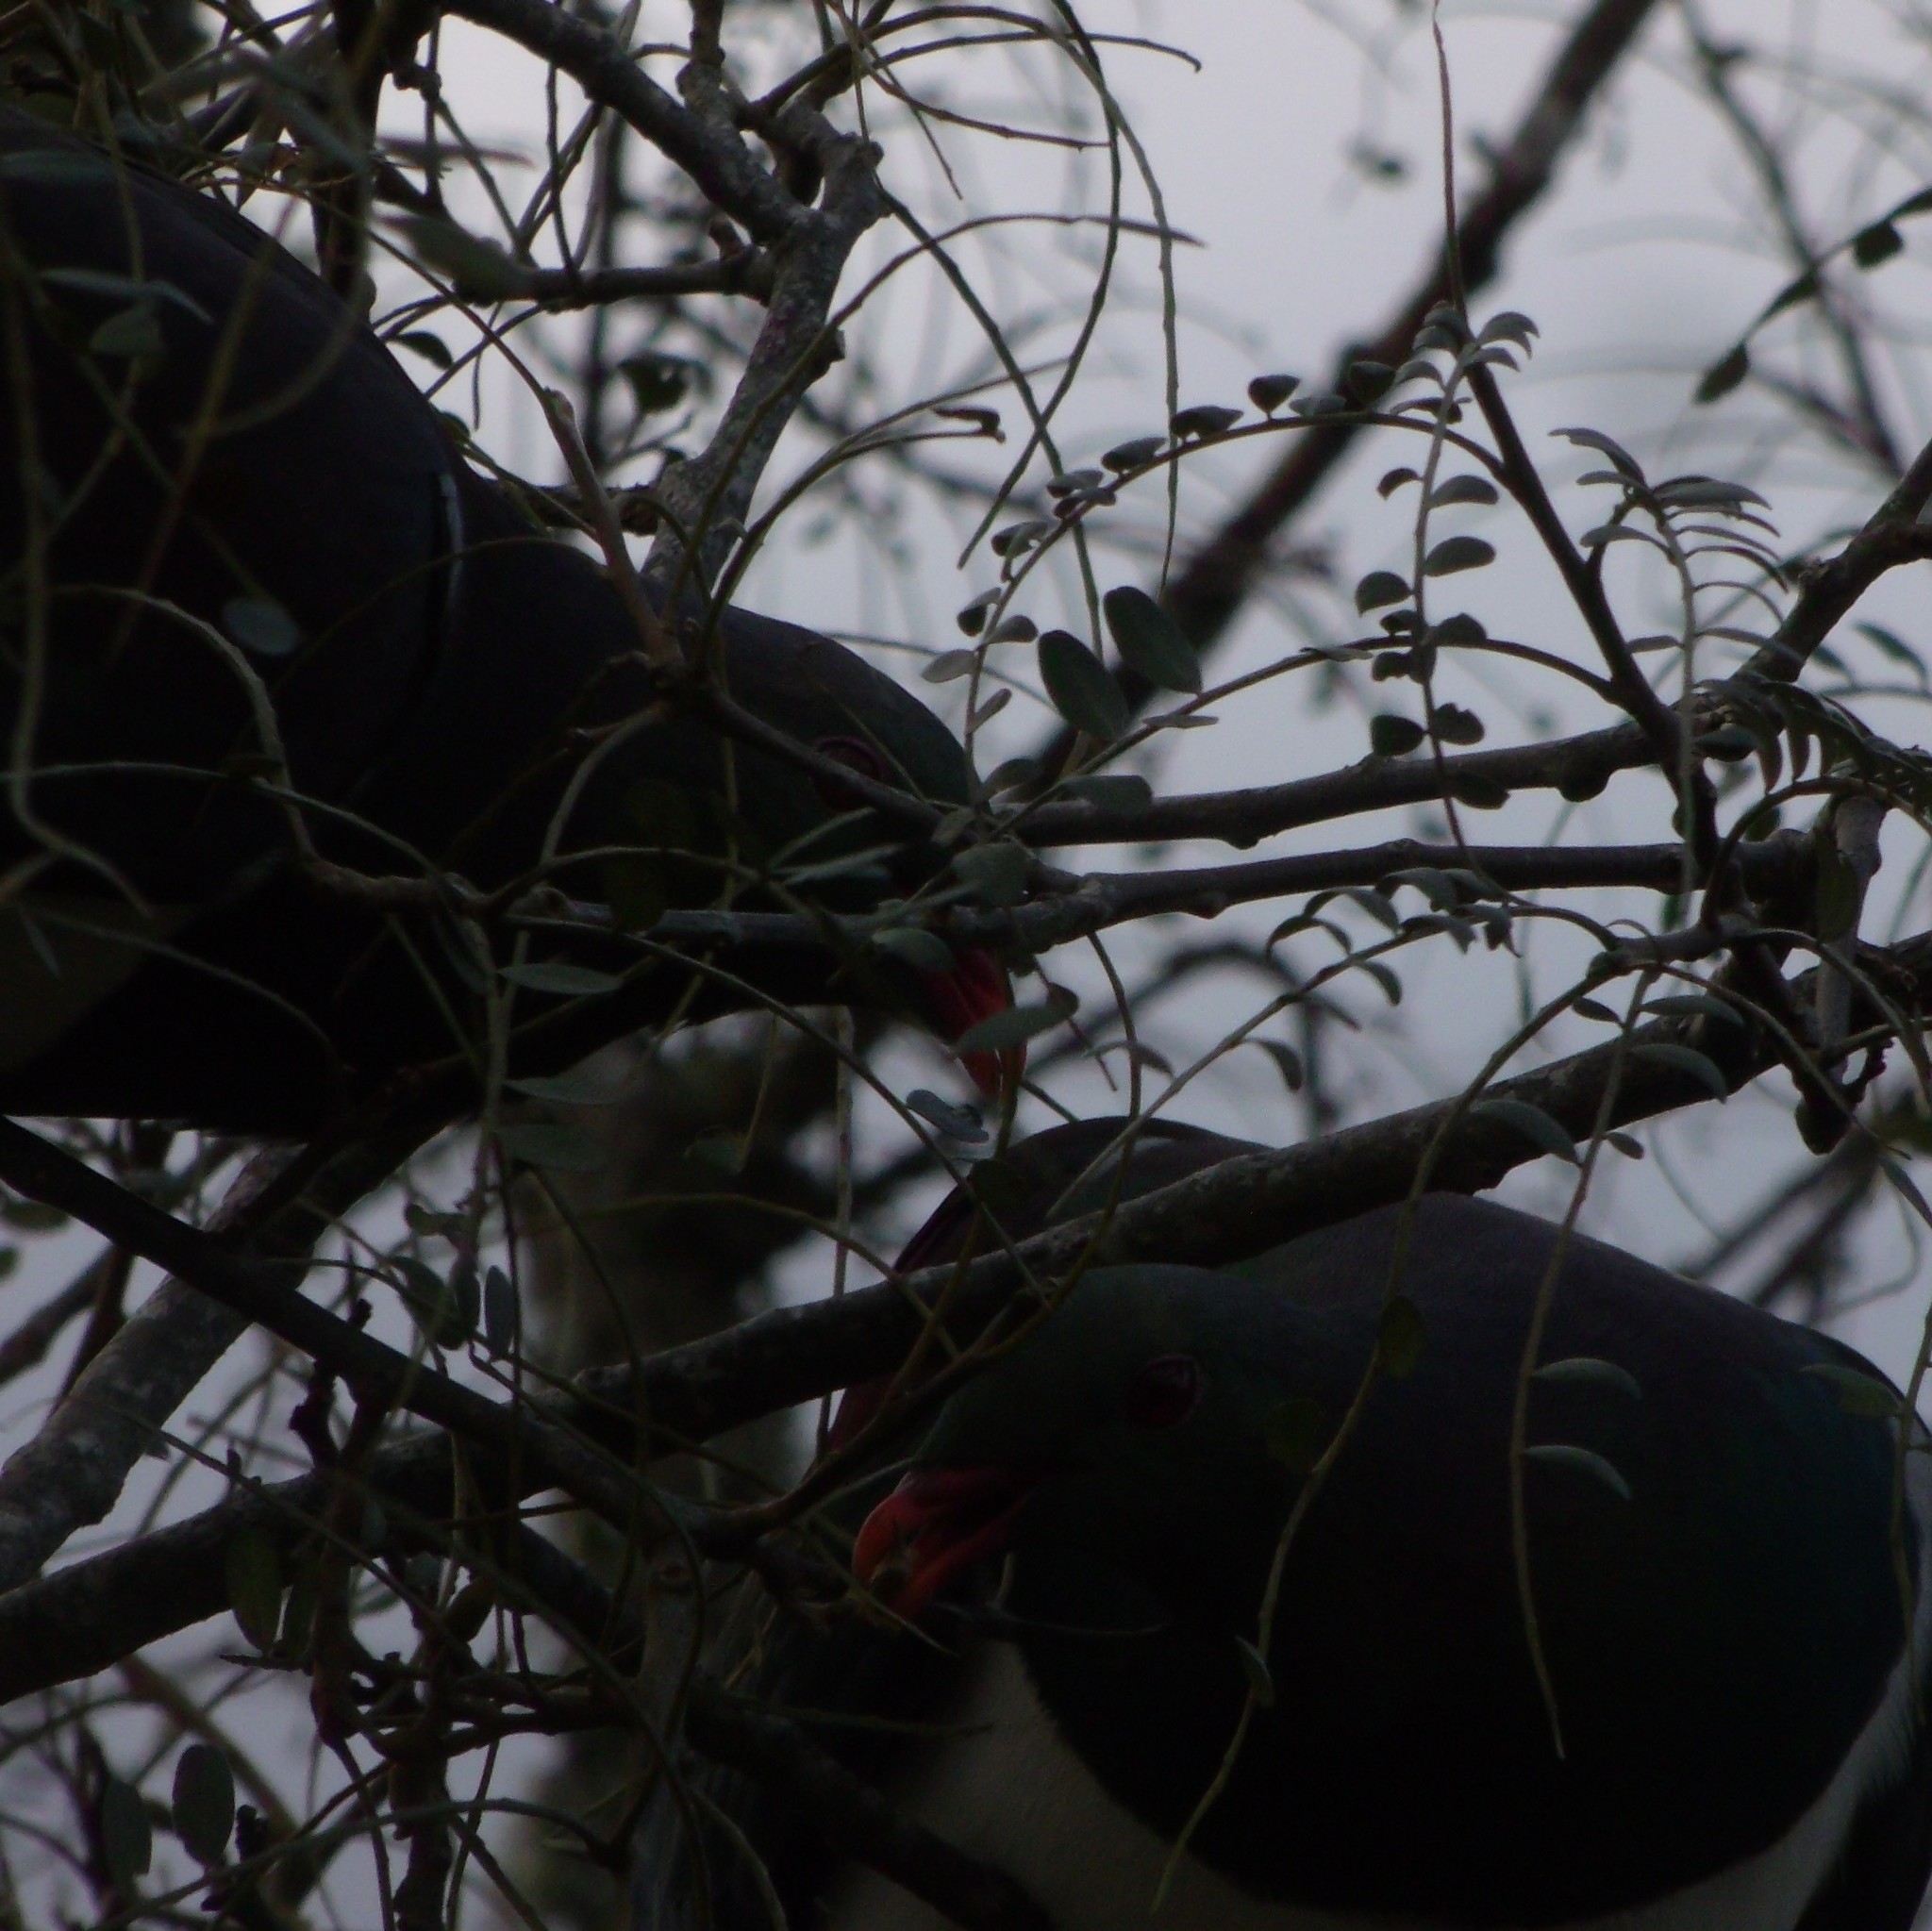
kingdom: Animalia
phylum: Chordata
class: Aves
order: Columbiformes
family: Columbidae
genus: Hemiphaga
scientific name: Hemiphaga novaeseelandiae
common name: New zealand pigeon
